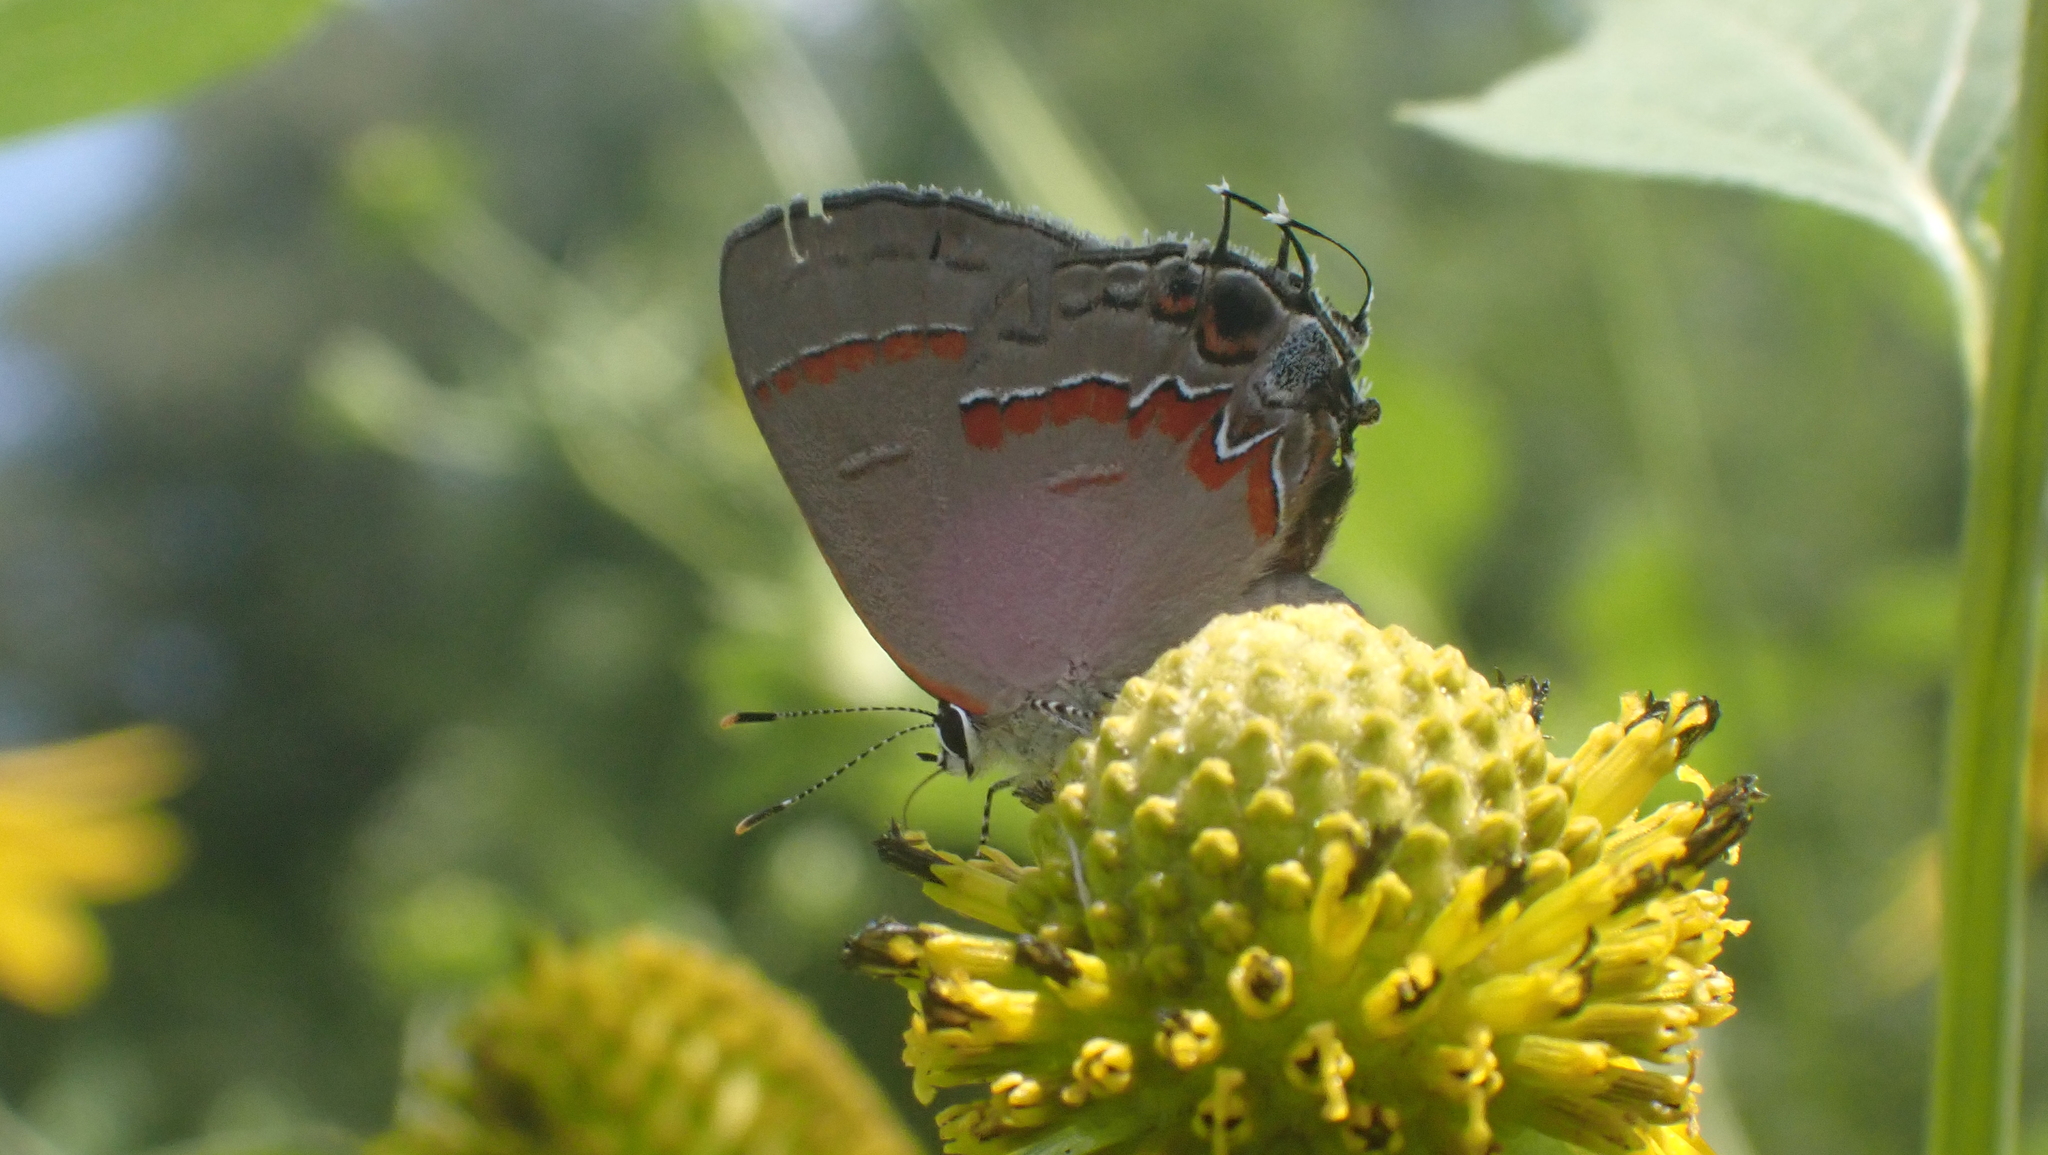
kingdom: Animalia
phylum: Arthropoda
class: Insecta
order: Lepidoptera
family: Lycaenidae
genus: Calycopis
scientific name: Calycopis cecrops
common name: Red-banded hairstreak
